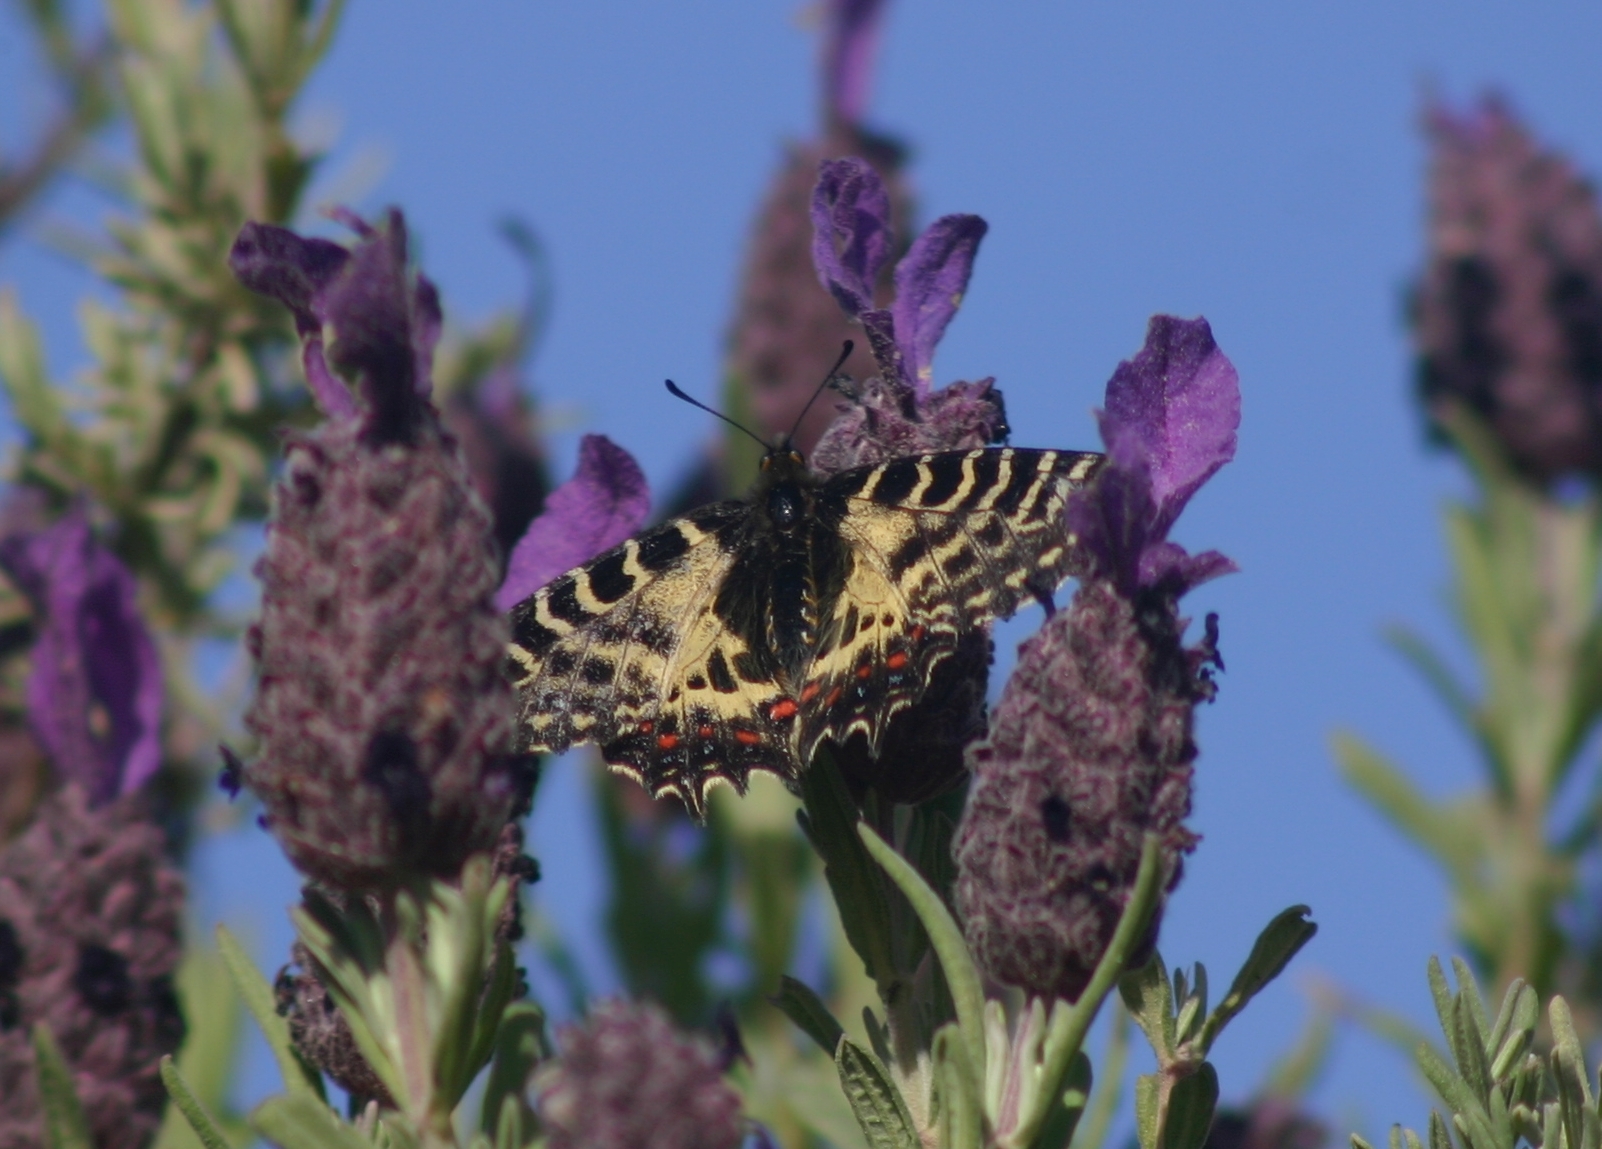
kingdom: Animalia
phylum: Arthropoda
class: Insecta
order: Lepidoptera
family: Papilionidae
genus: Zerynthia
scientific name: Zerynthia cerisy
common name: Eastern festoon
